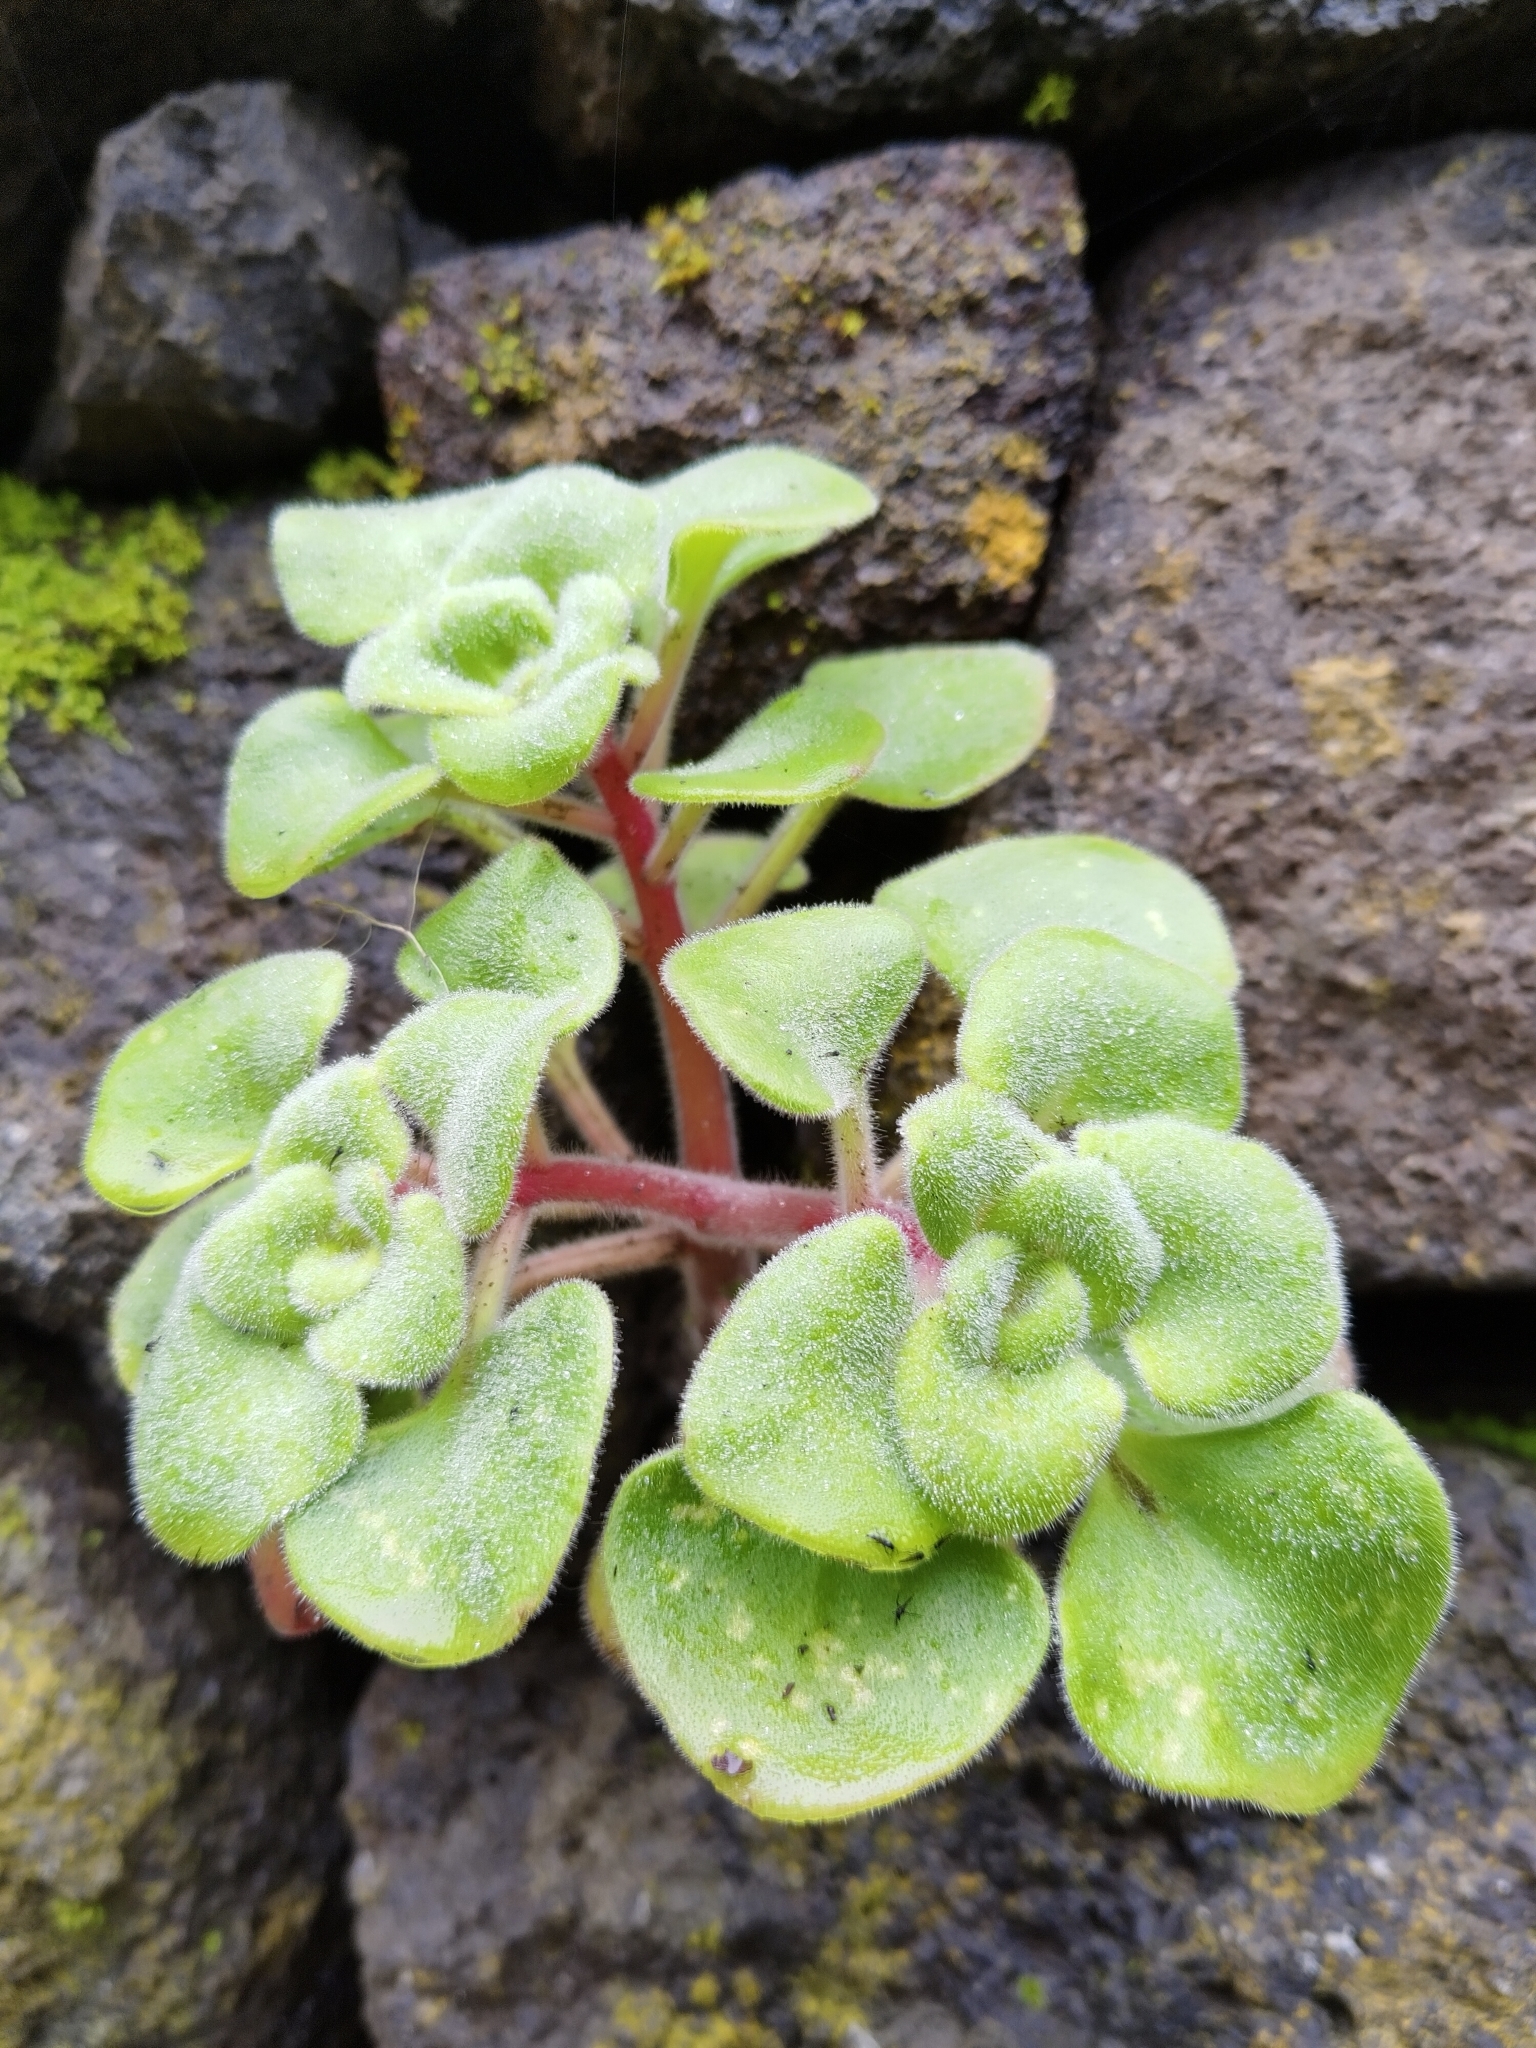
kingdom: Plantae
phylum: Tracheophyta
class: Magnoliopsida
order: Saxifragales
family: Crassulaceae
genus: Aichryson
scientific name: Aichryson laxum
